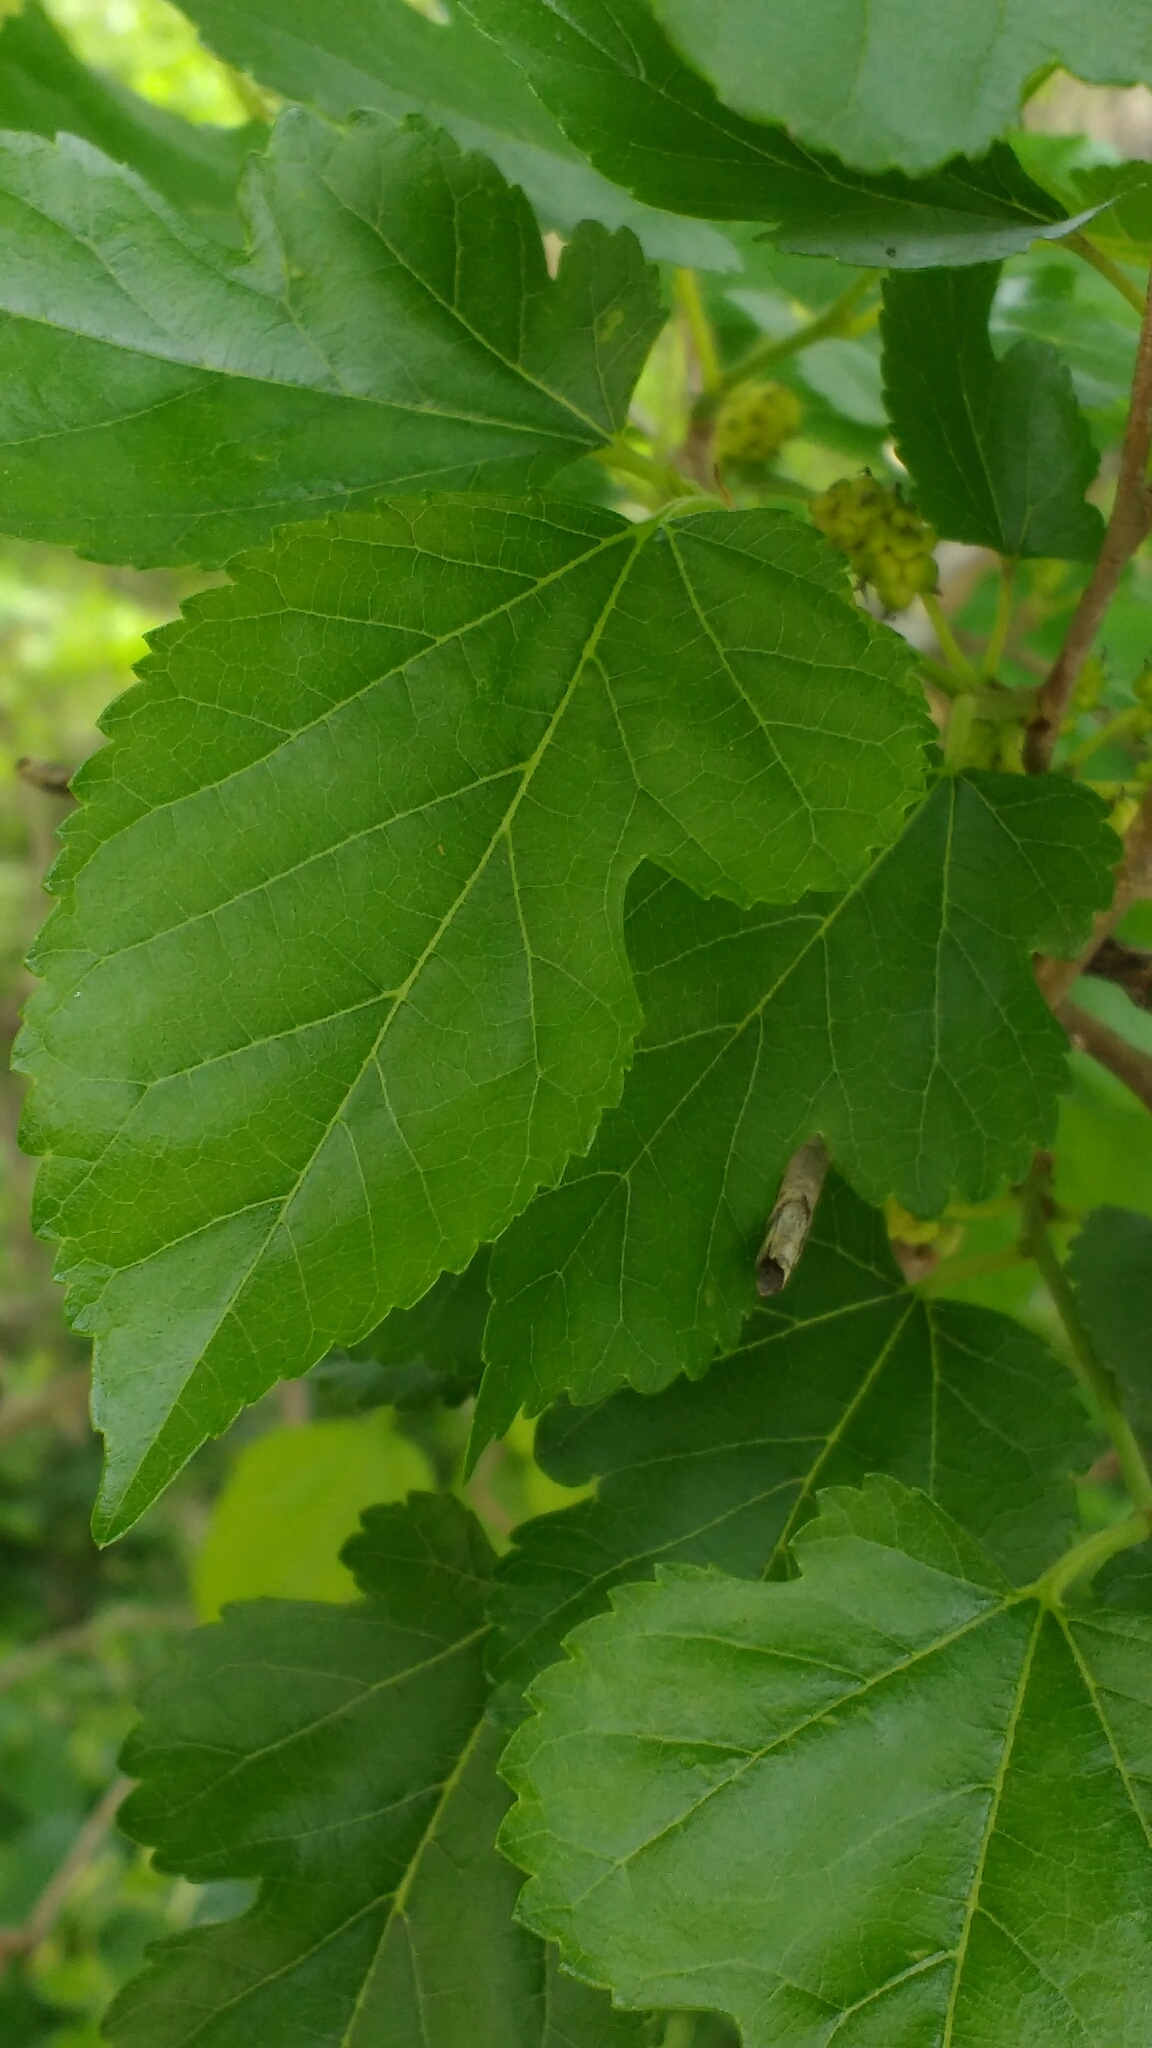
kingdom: Plantae
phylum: Tracheophyta
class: Magnoliopsida
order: Rosales
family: Moraceae
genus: Morus
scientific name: Morus alba
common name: White mulberry
